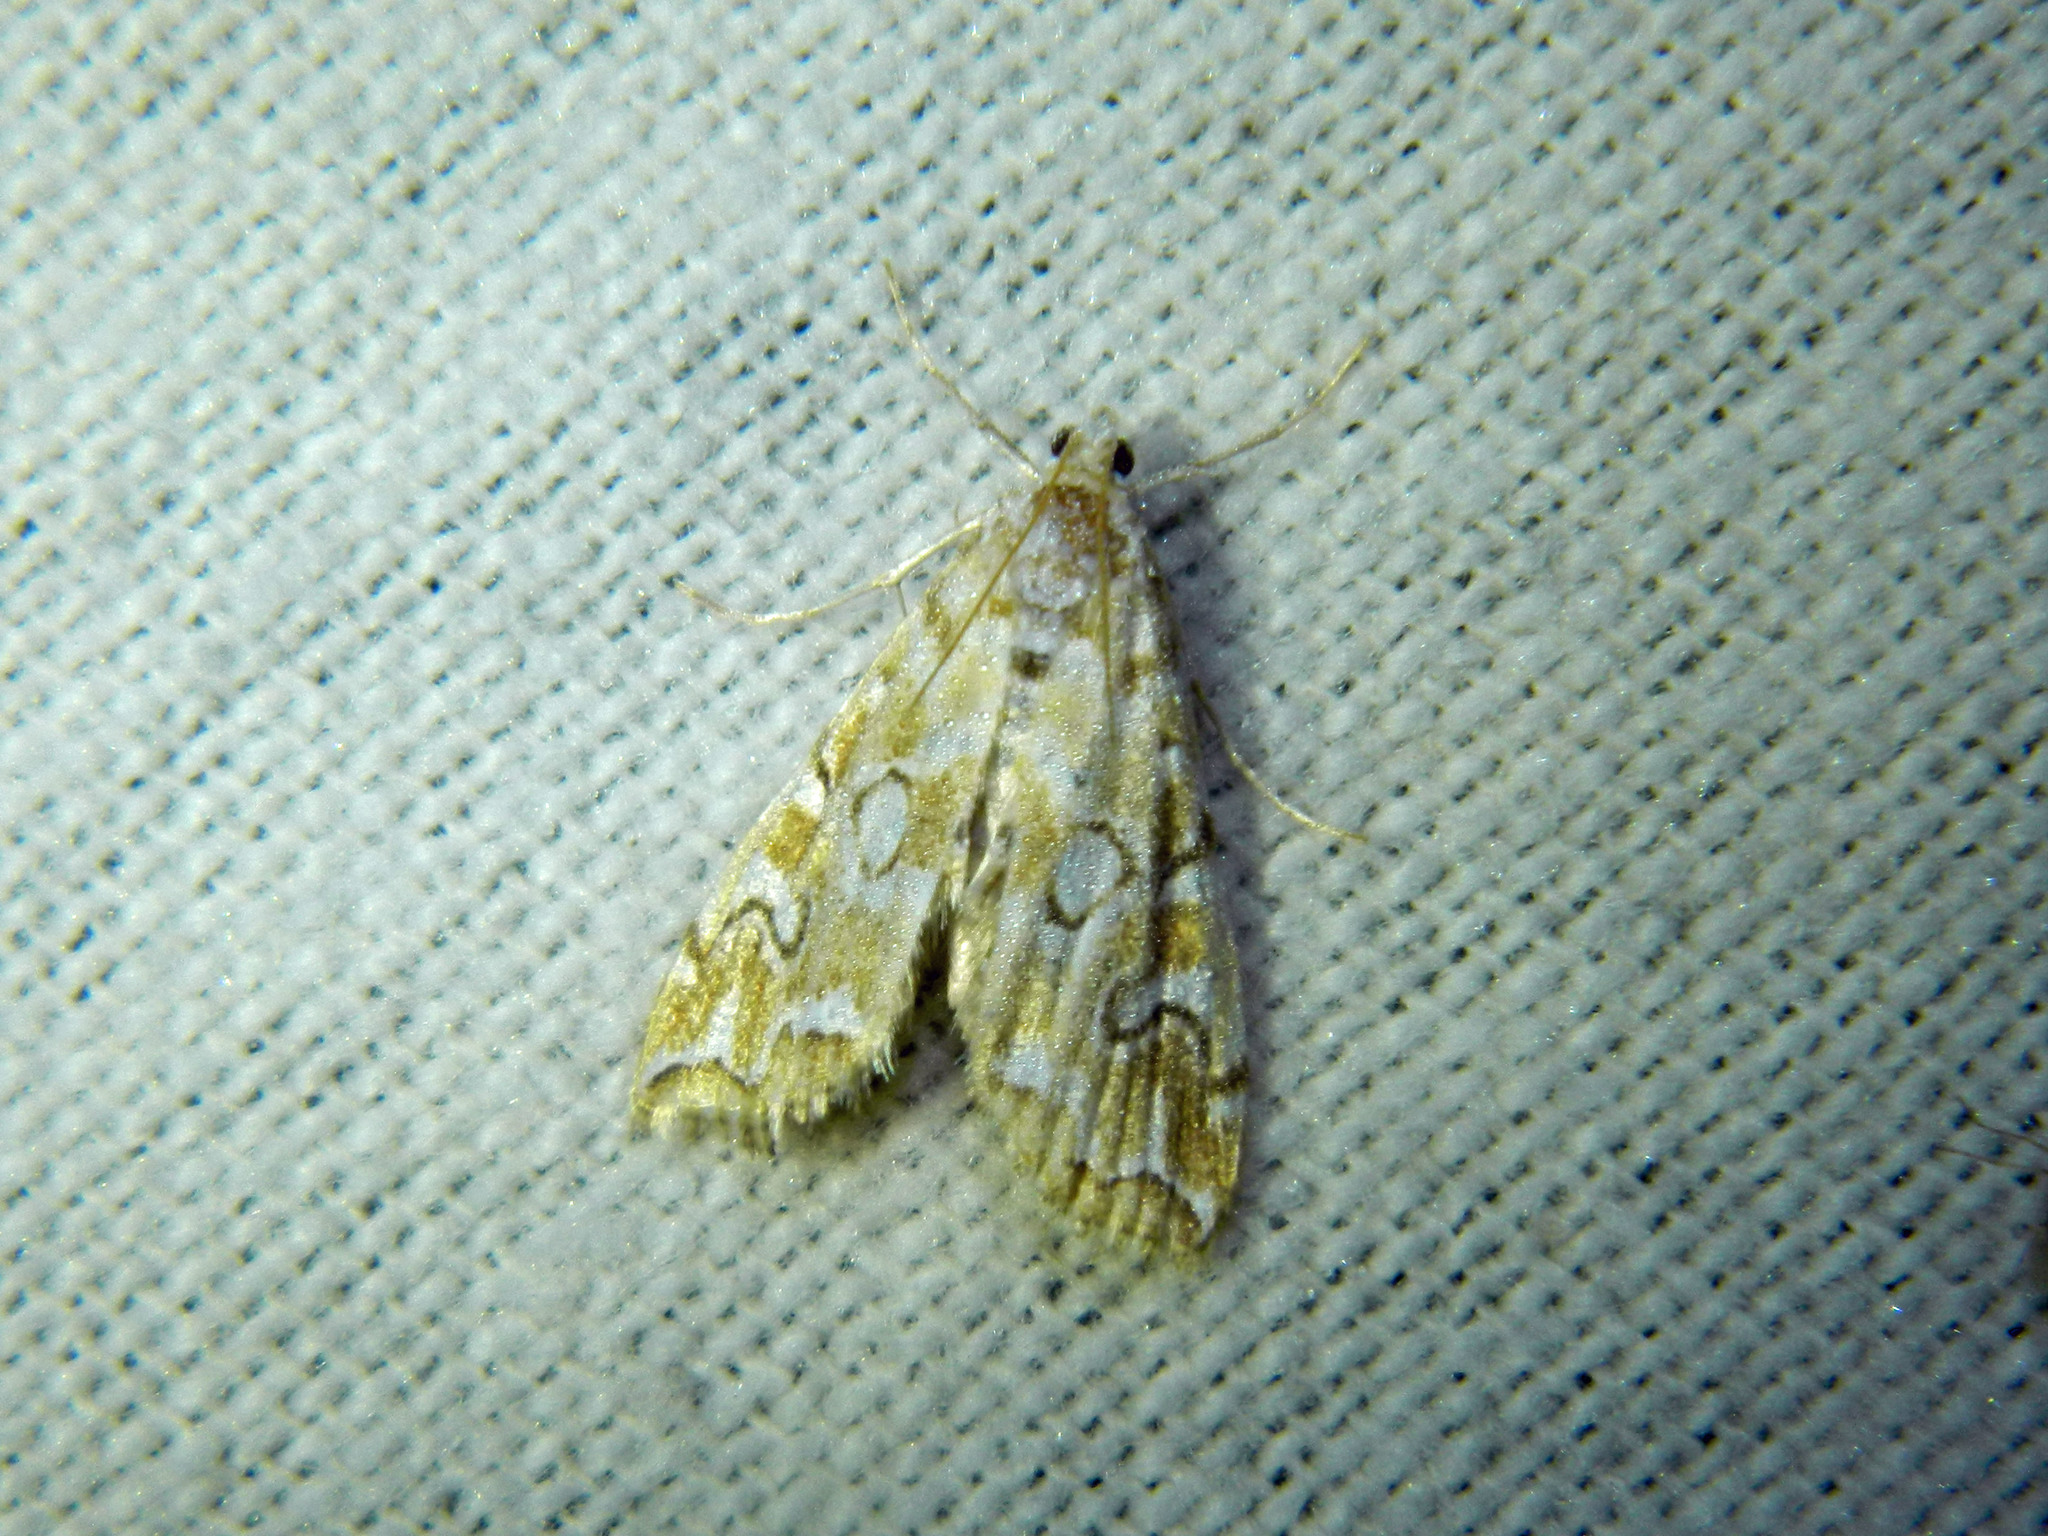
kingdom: Animalia
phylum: Arthropoda
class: Insecta
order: Lepidoptera
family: Crambidae
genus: Elophila
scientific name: Elophila icciusalis
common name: Pondside pyralid moth
